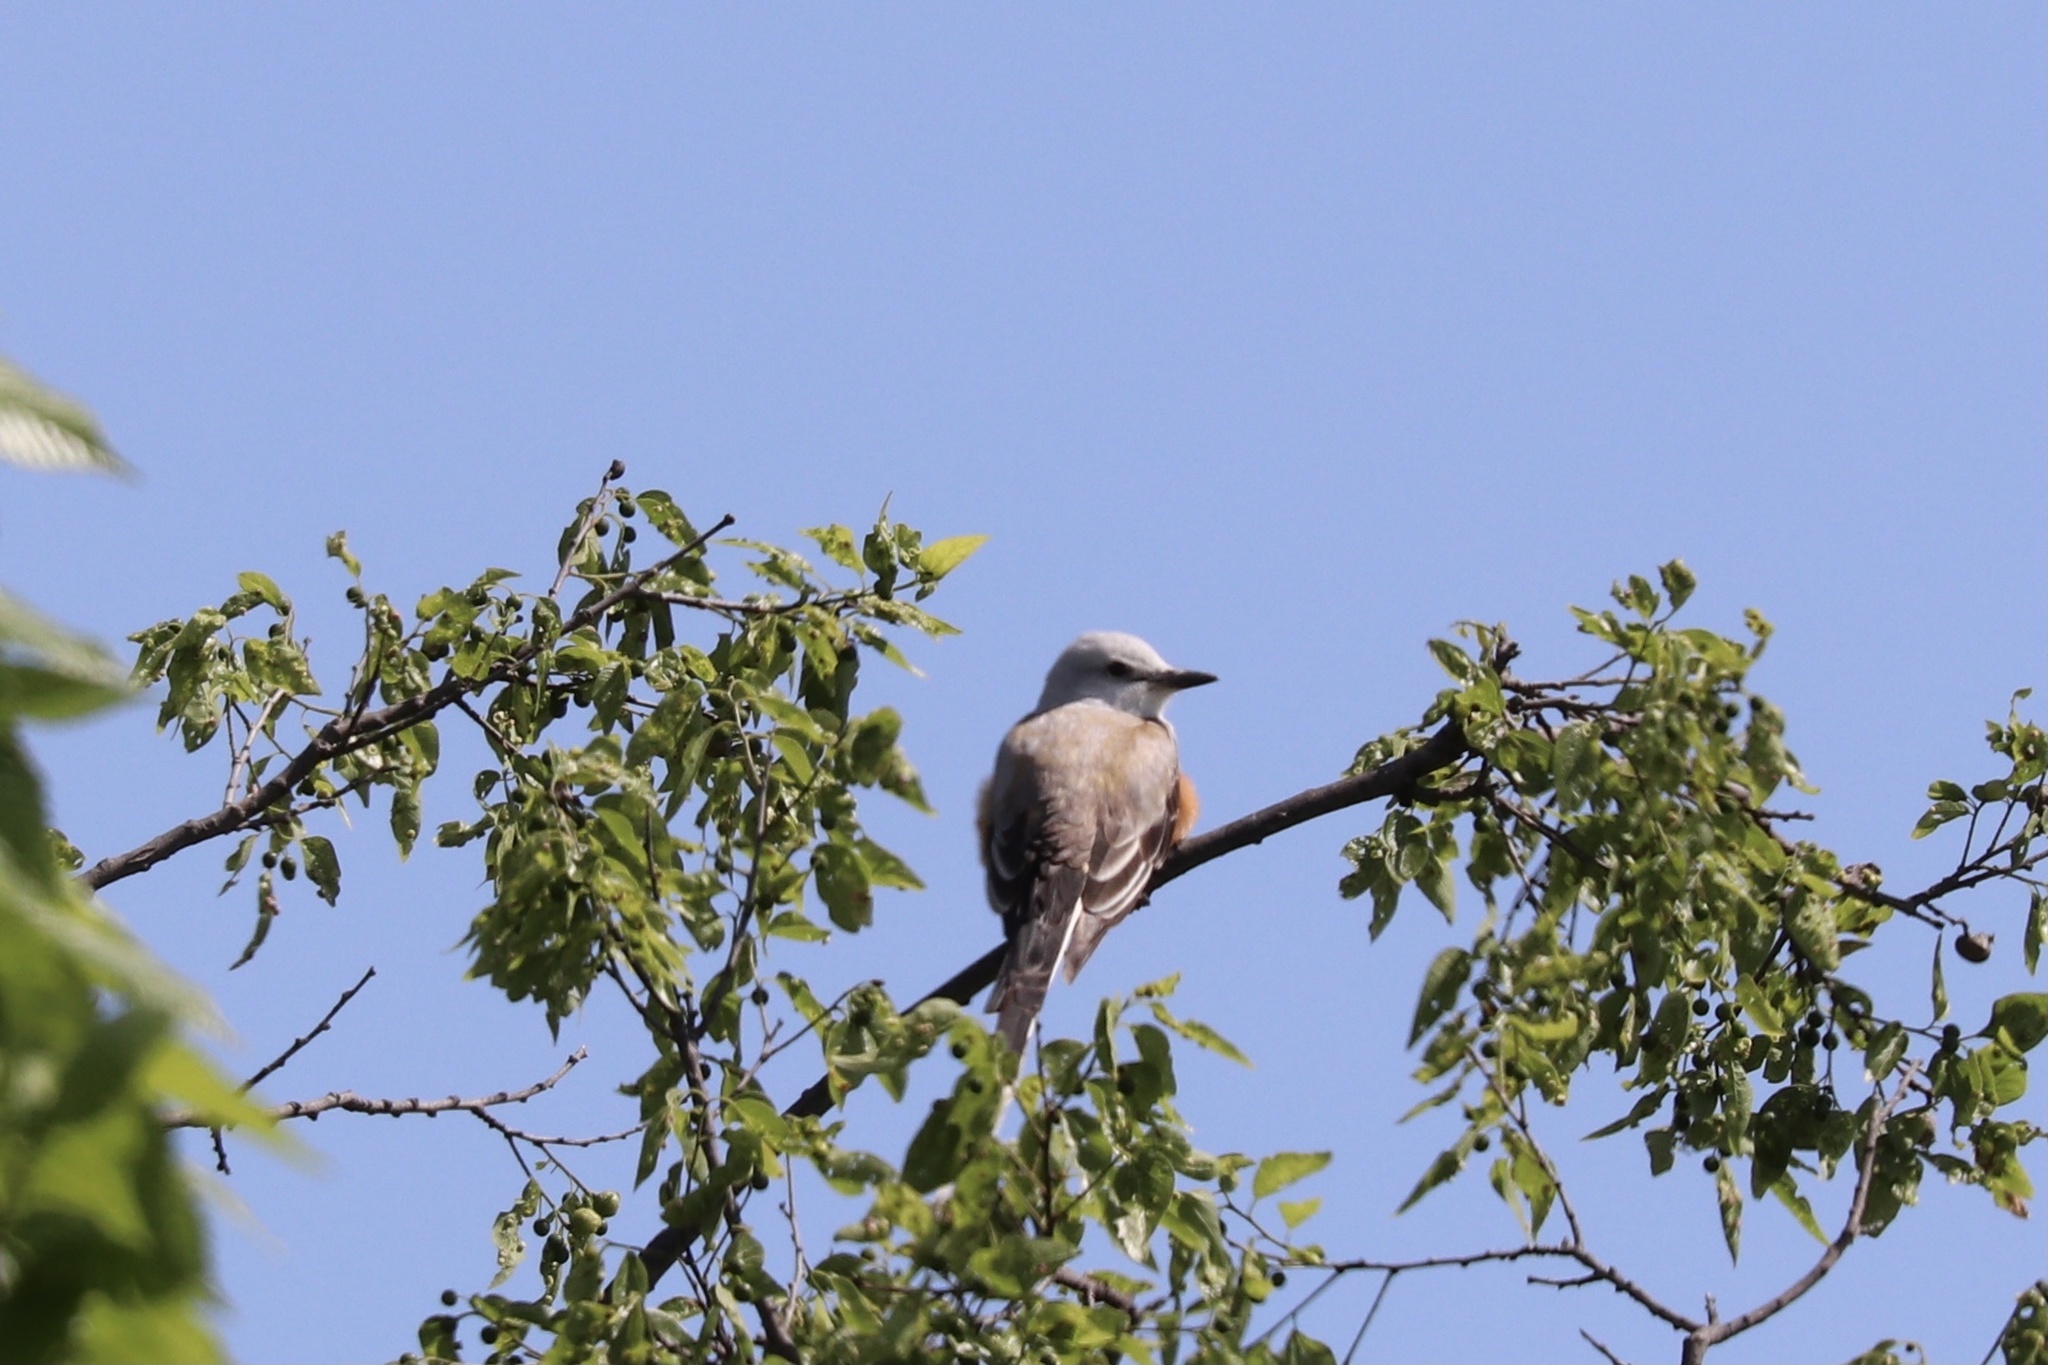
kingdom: Animalia
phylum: Chordata
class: Aves
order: Passeriformes
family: Tyrannidae
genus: Tyrannus
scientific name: Tyrannus forficatus
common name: Scissor-tailed flycatcher
